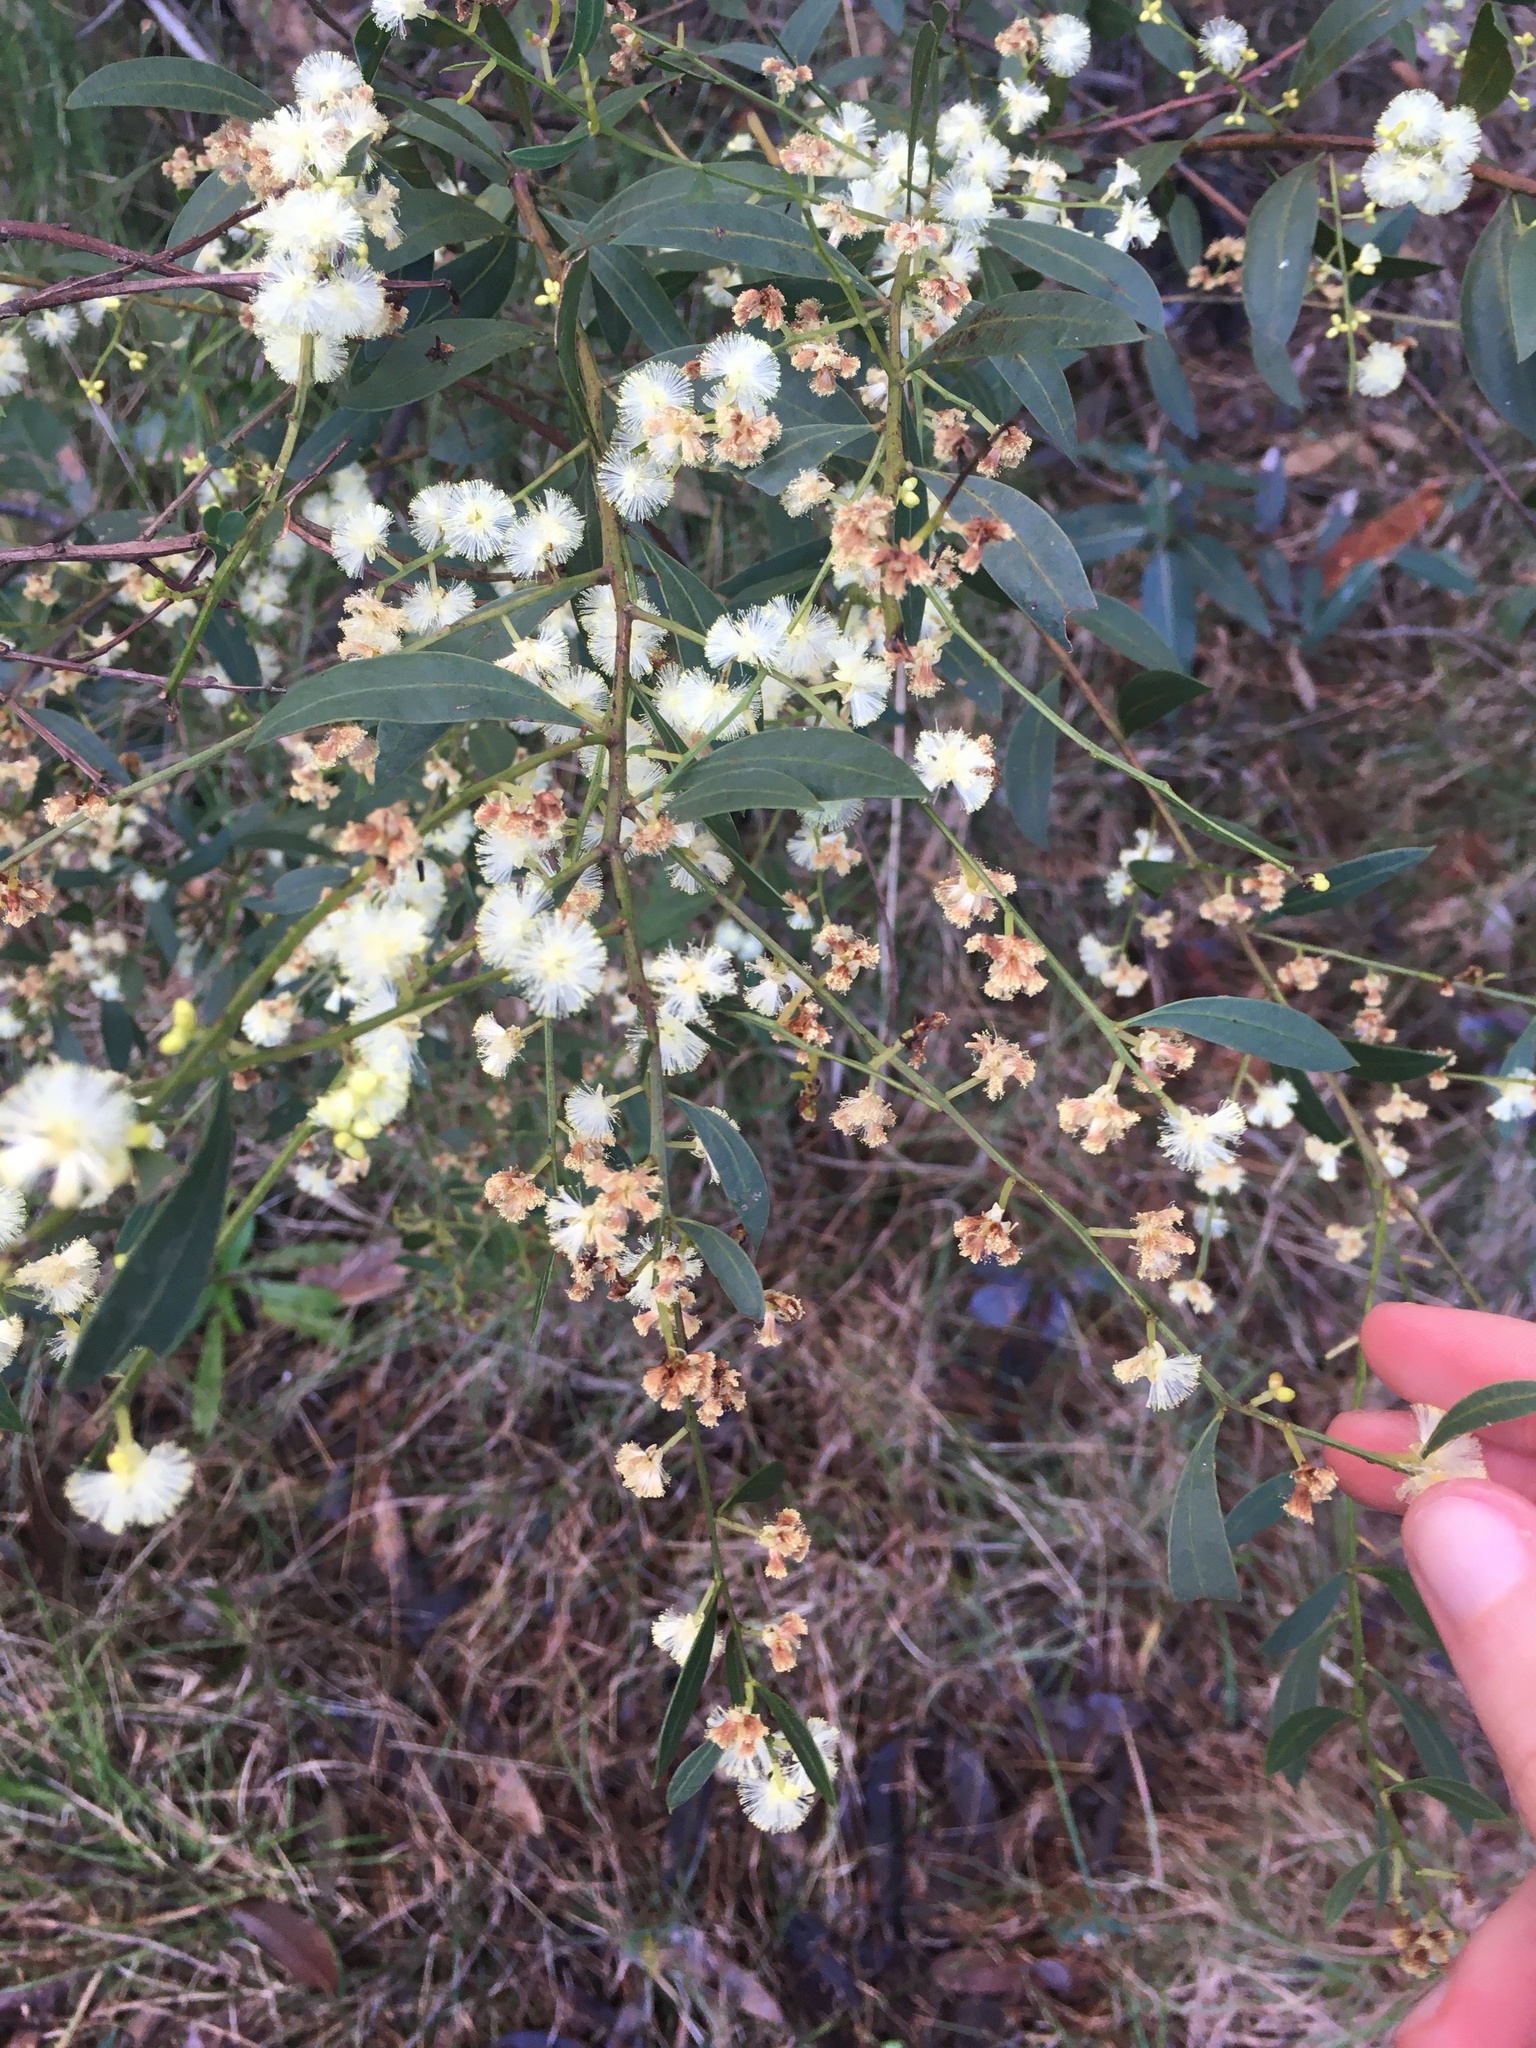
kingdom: Plantae
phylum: Tracheophyta
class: Magnoliopsida
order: Fabales
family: Fabaceae
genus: Acacia
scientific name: Acacia myrtifolia
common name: Myrtle wattle
